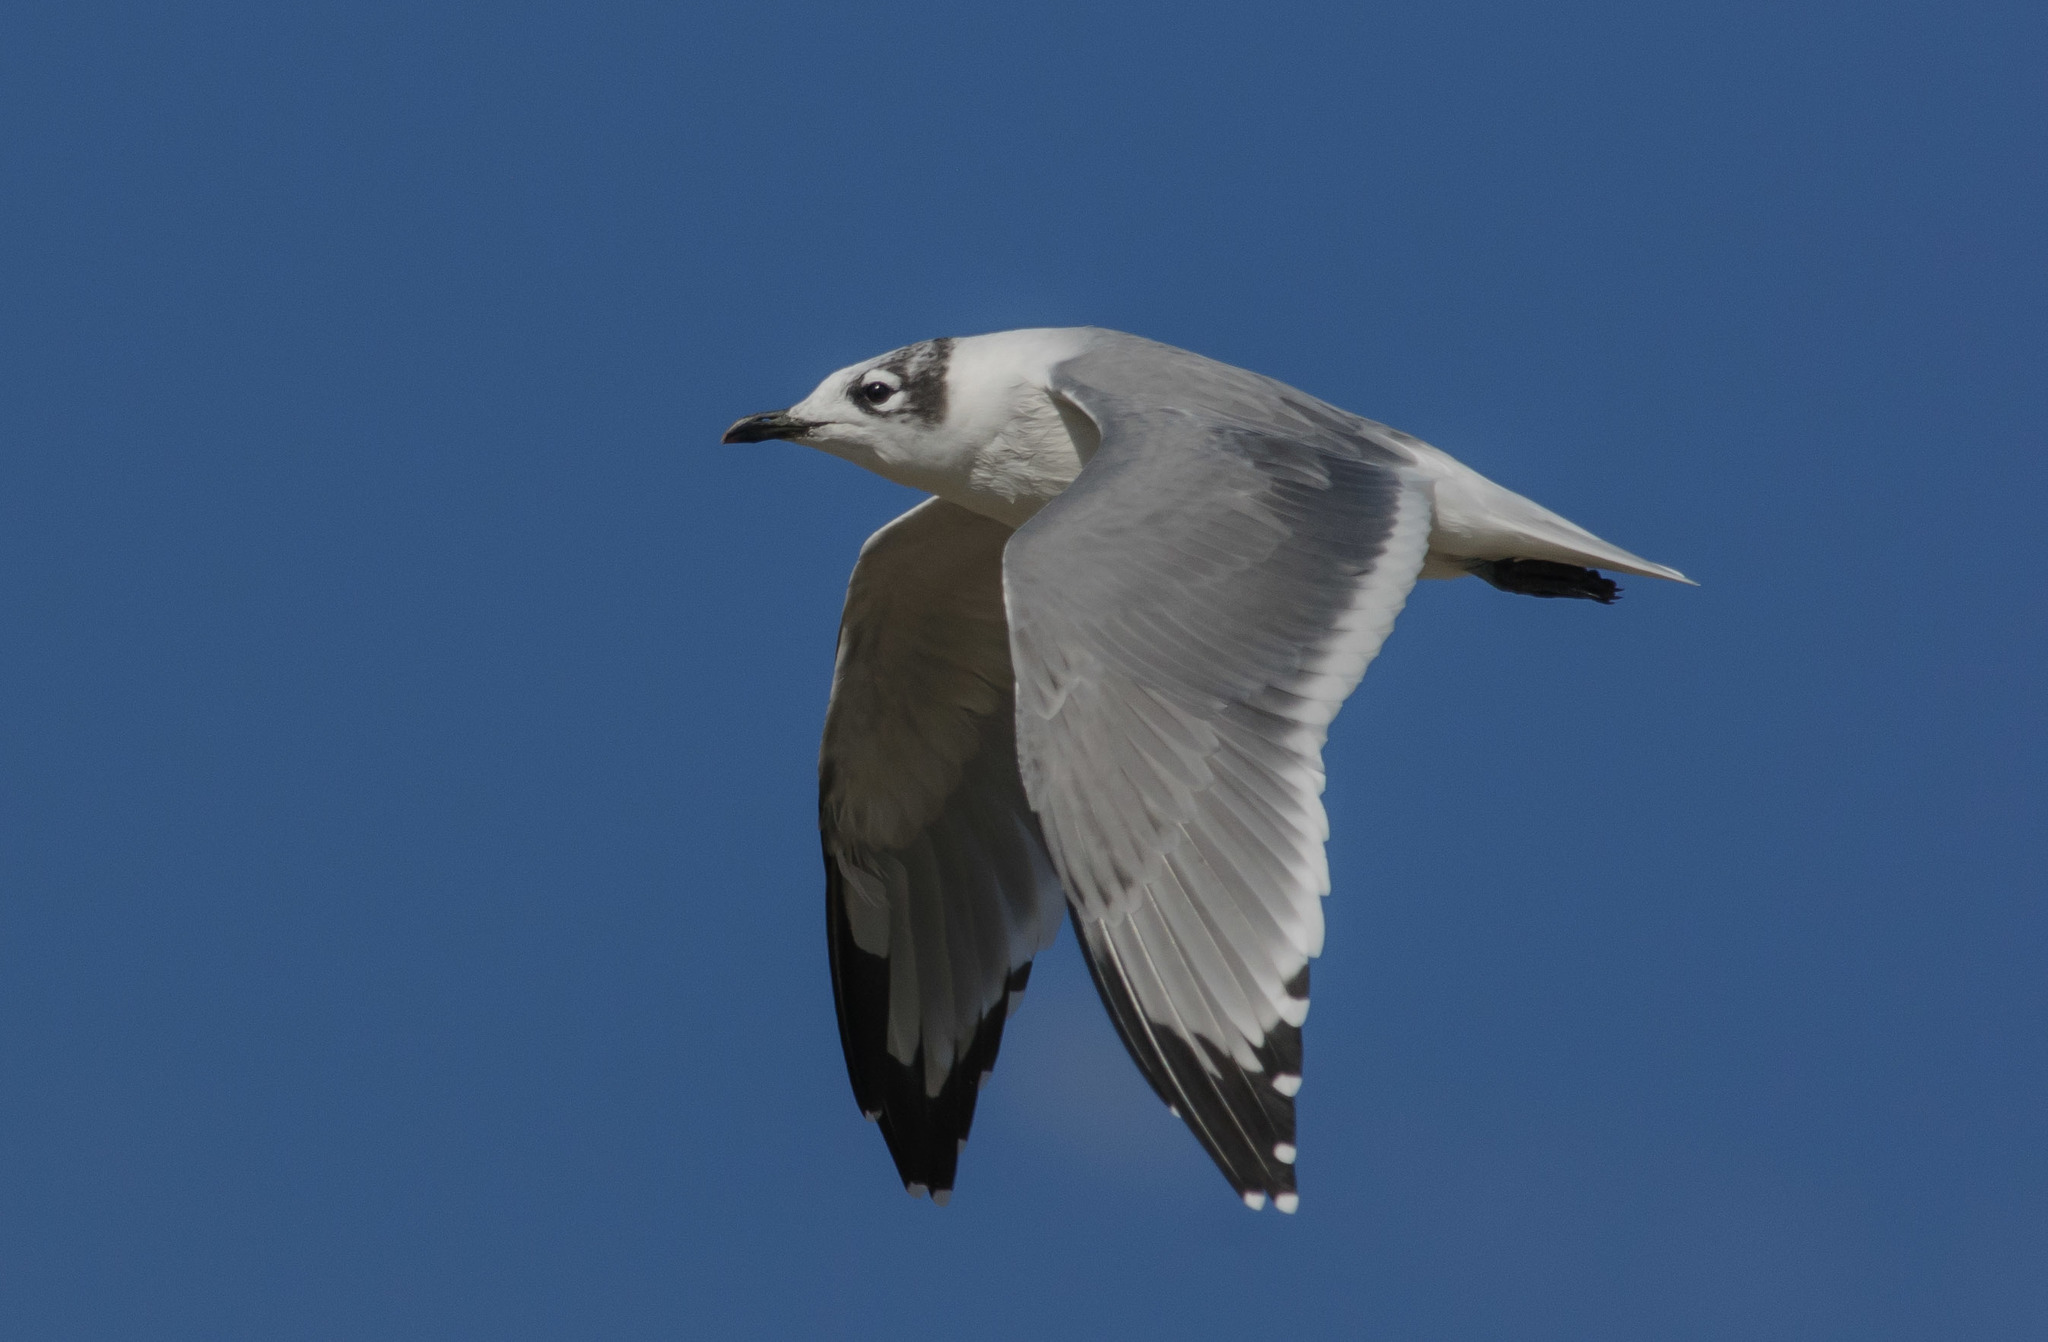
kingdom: Animalia
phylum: Chordata
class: Aves
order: Charadriiformes
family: Laridae
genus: Leucophaeus
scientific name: Leucophaeus pipixcan
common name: Franklin's gull
